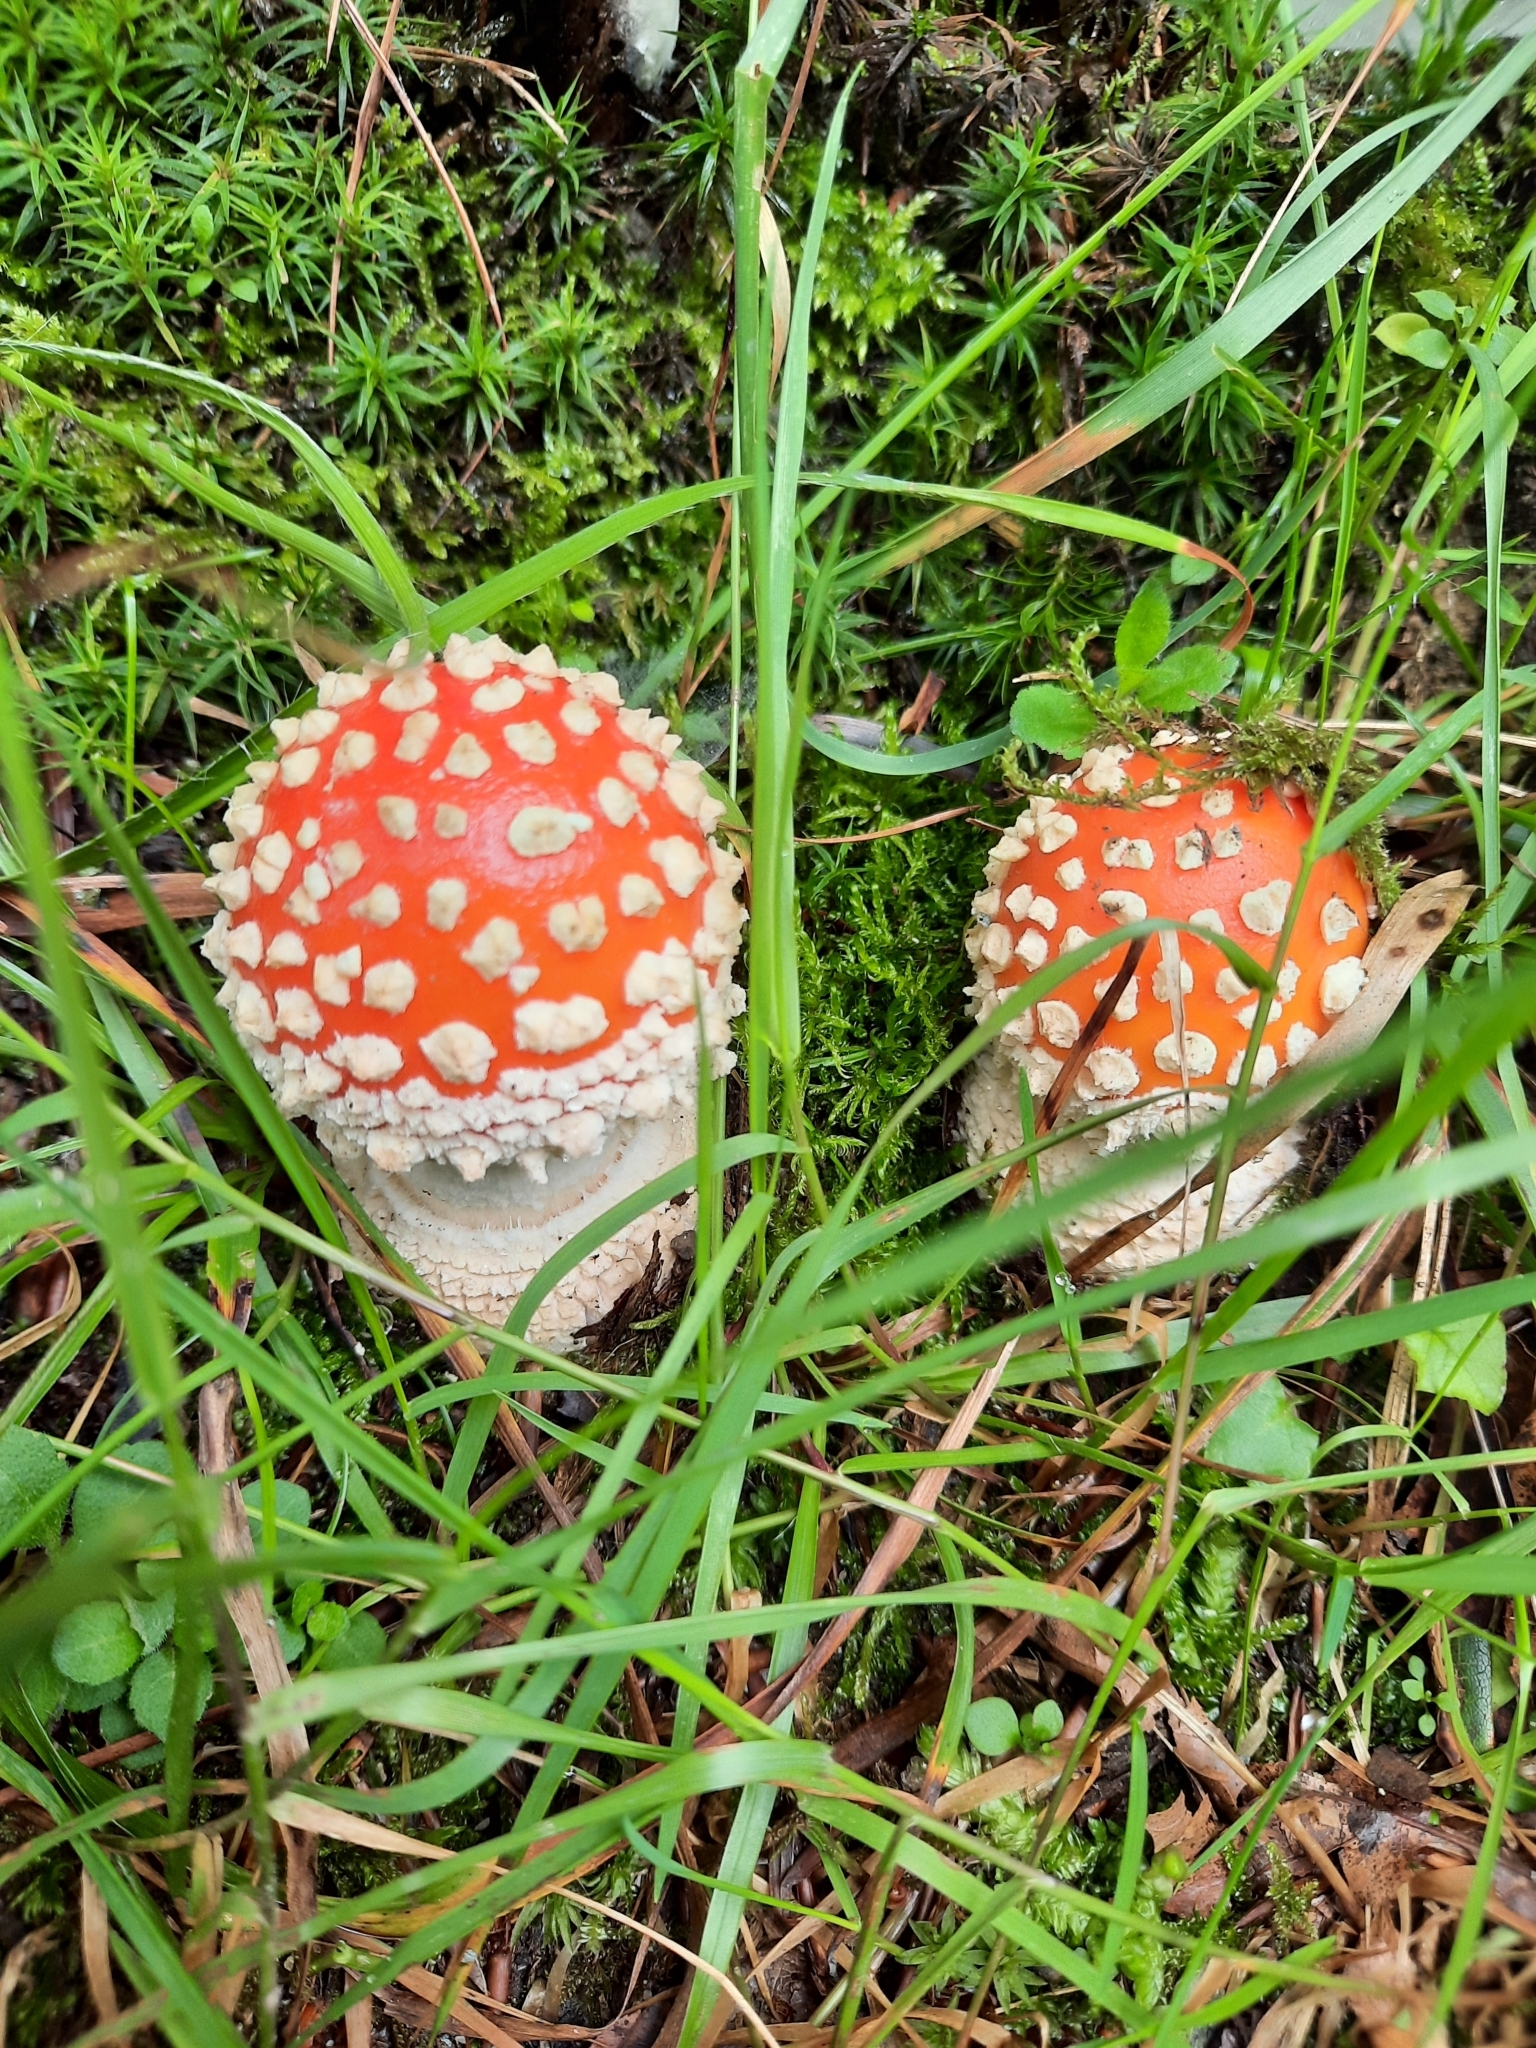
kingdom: Fungi
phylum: Basidiomycota
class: Agaricomycetes
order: Agaricales
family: Amanitaceae
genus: Amanita
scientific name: Amanita muscaria
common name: Fly agaric
